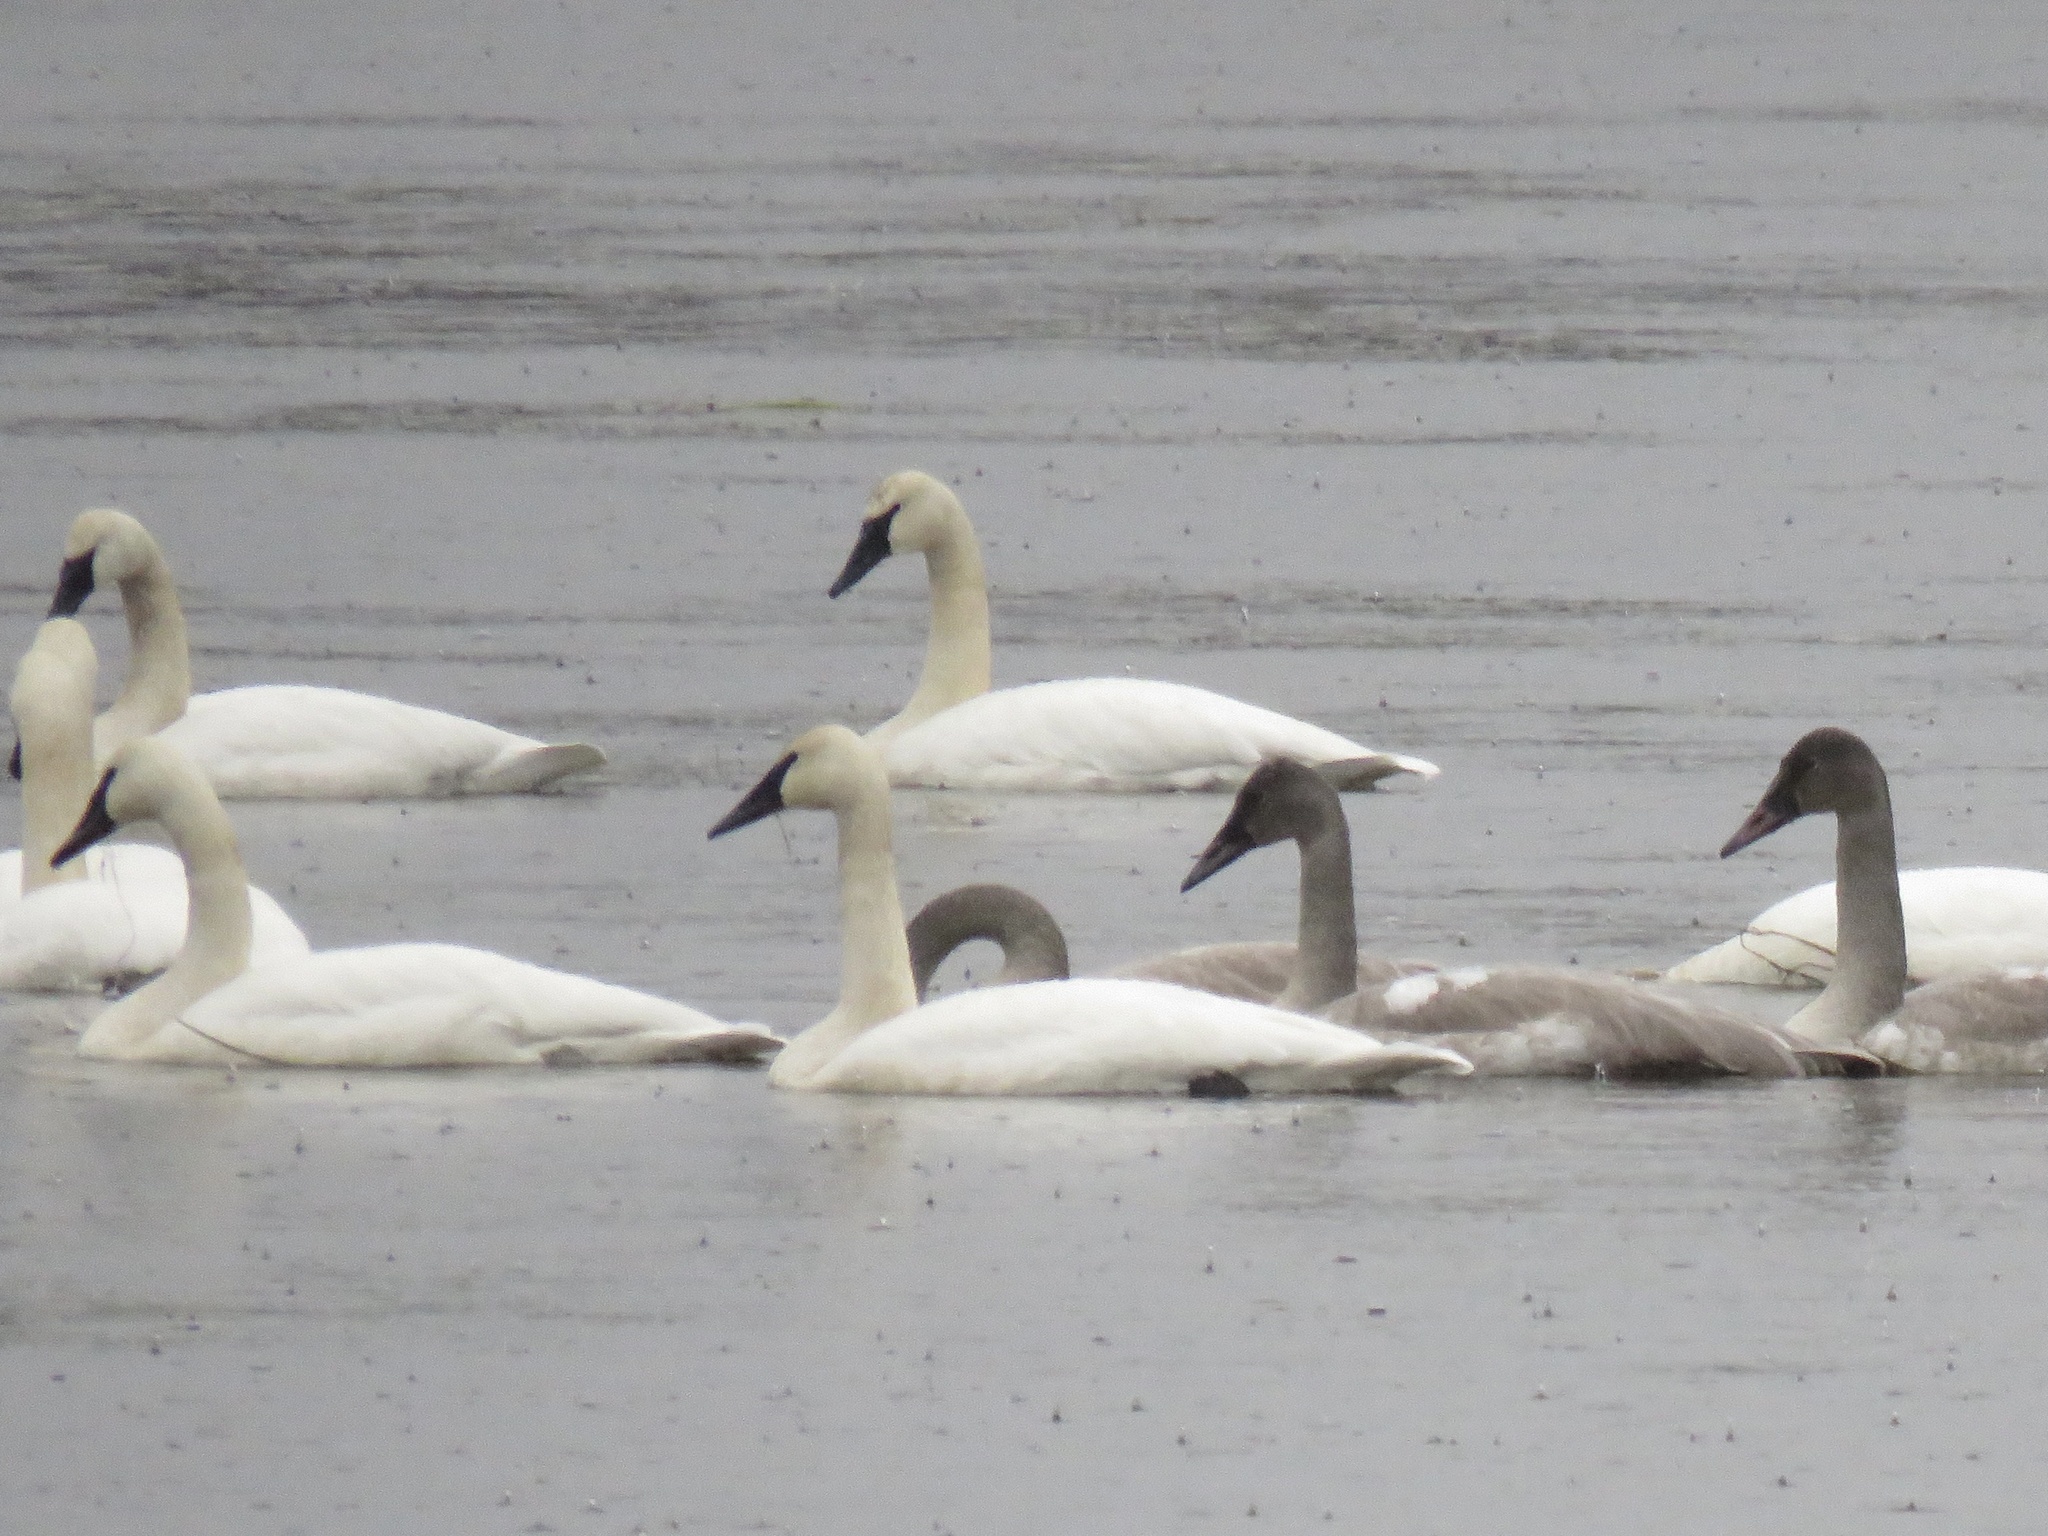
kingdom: Animalia
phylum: Chordata
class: Aves
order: Anseriformes
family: Anatidae
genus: Cygnus
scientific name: Cygnus buccinator
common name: Trumpeter swan
